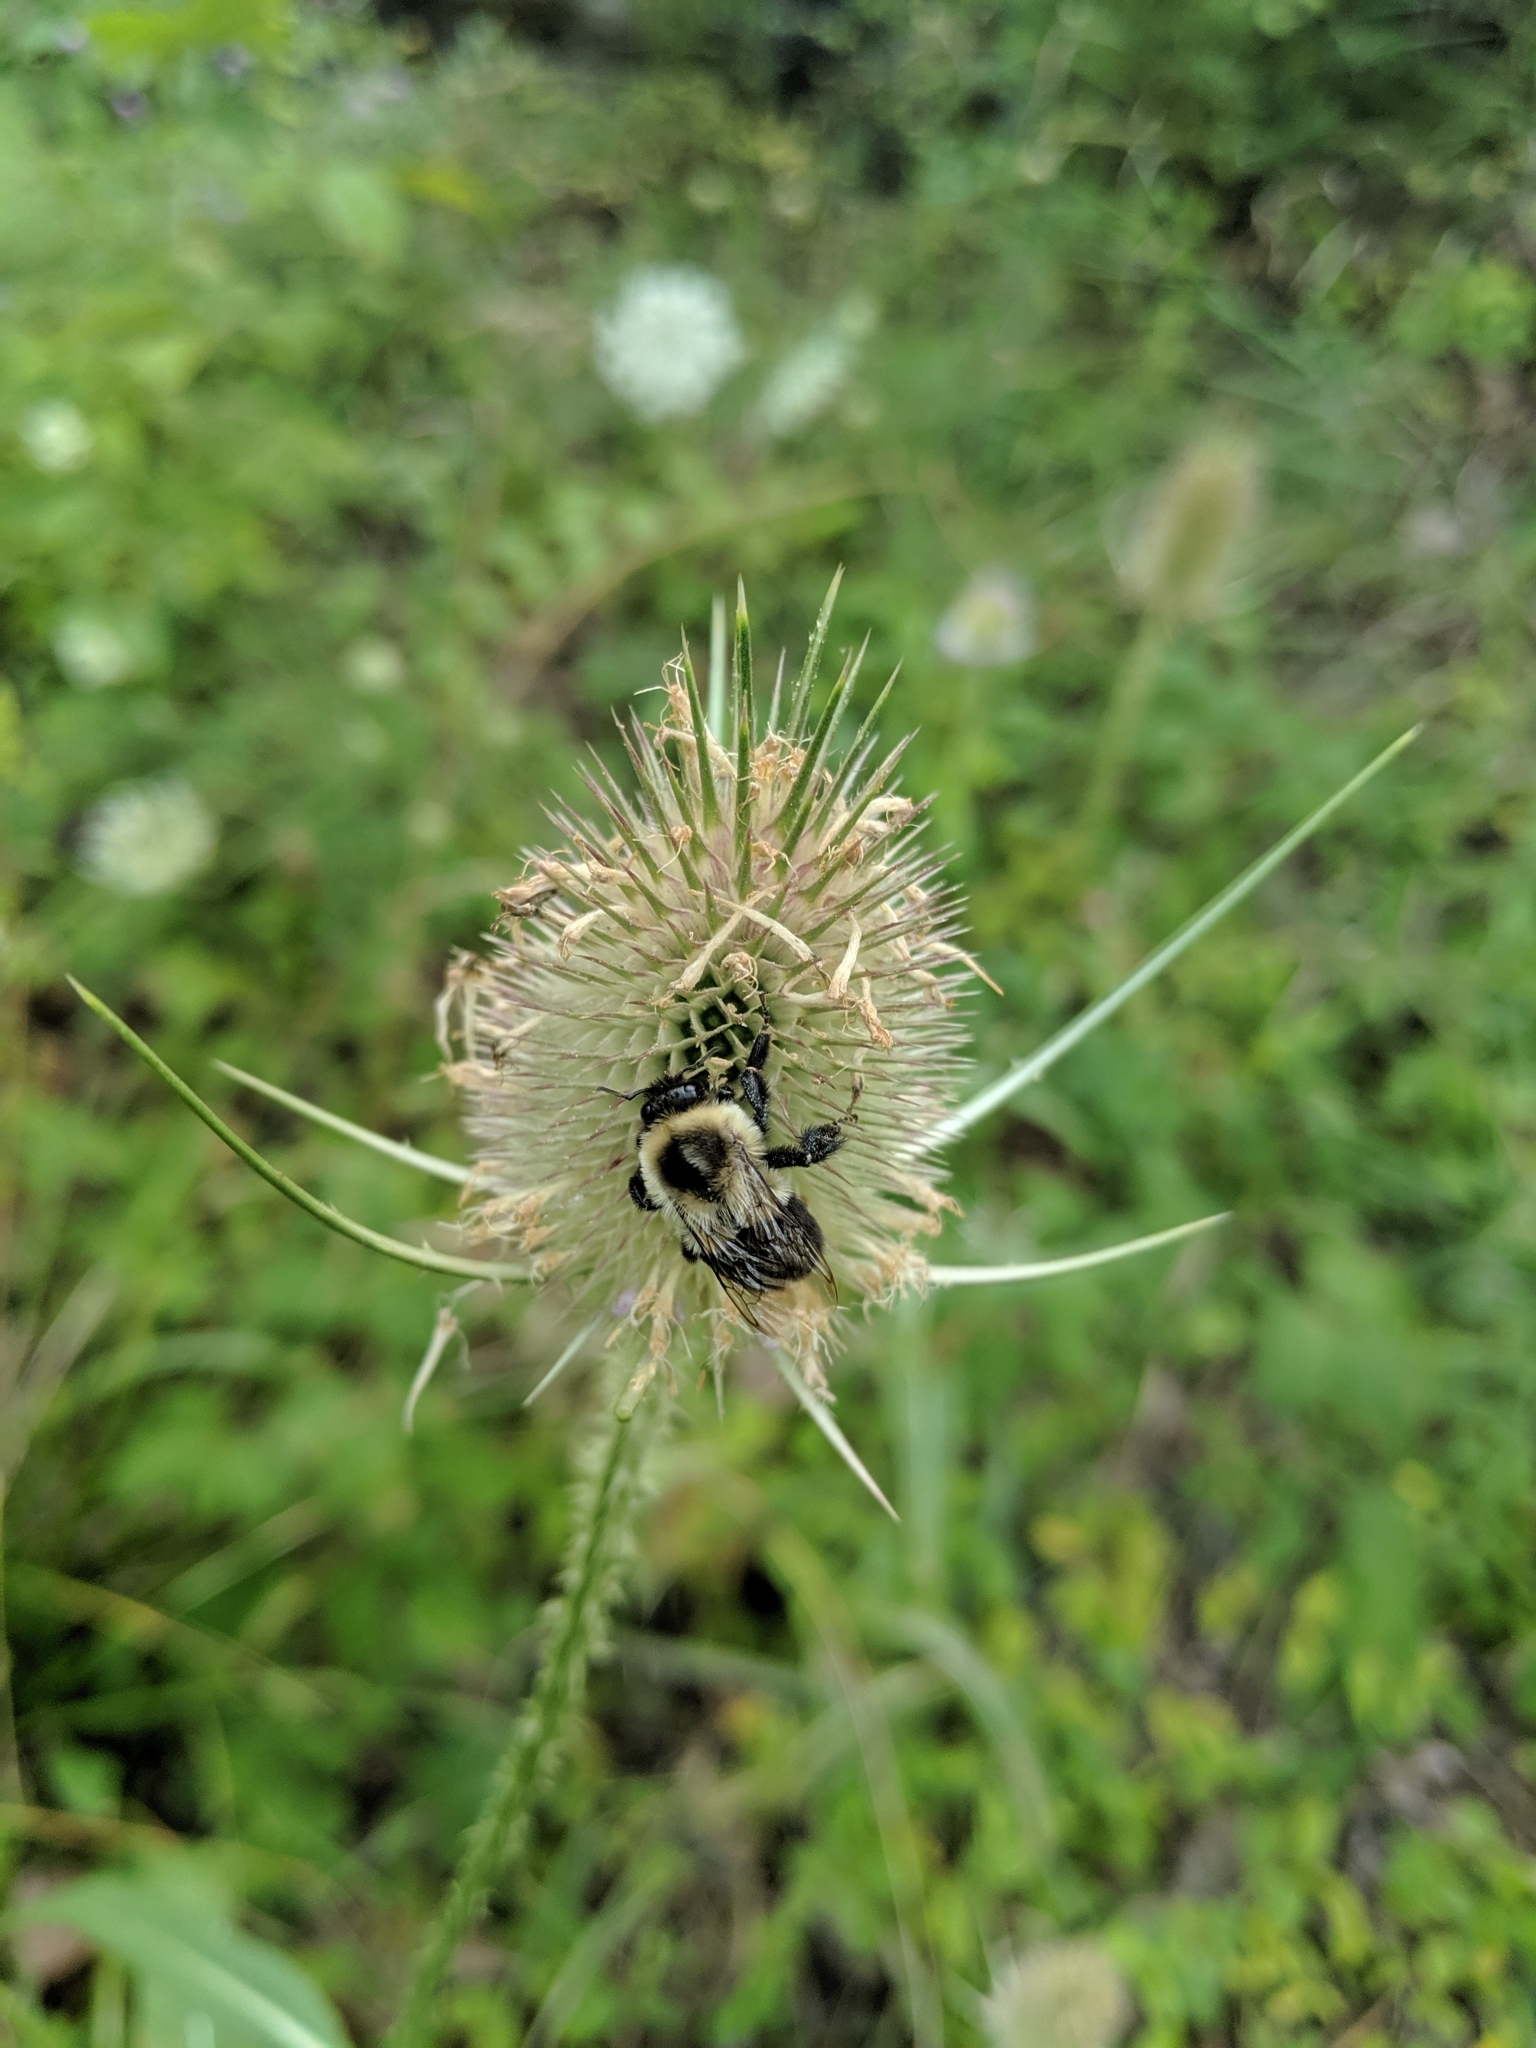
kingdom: Animalia
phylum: Arthropoda
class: Insecta
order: Hymenoptera
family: Apidae
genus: Bombus
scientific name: Bombus impatiens
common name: Common eastern bumble bee
